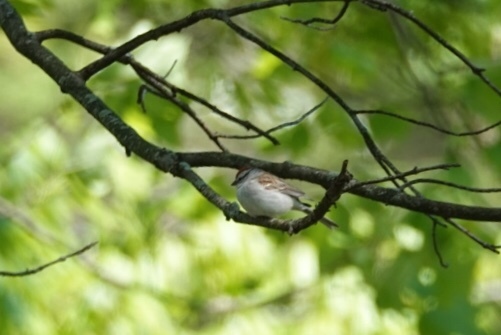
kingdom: Animalia
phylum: Chordata
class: Aves
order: Passeriformes
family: Passerellidae
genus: Spizella
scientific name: Spizella passerina
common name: Chipping sparrow
